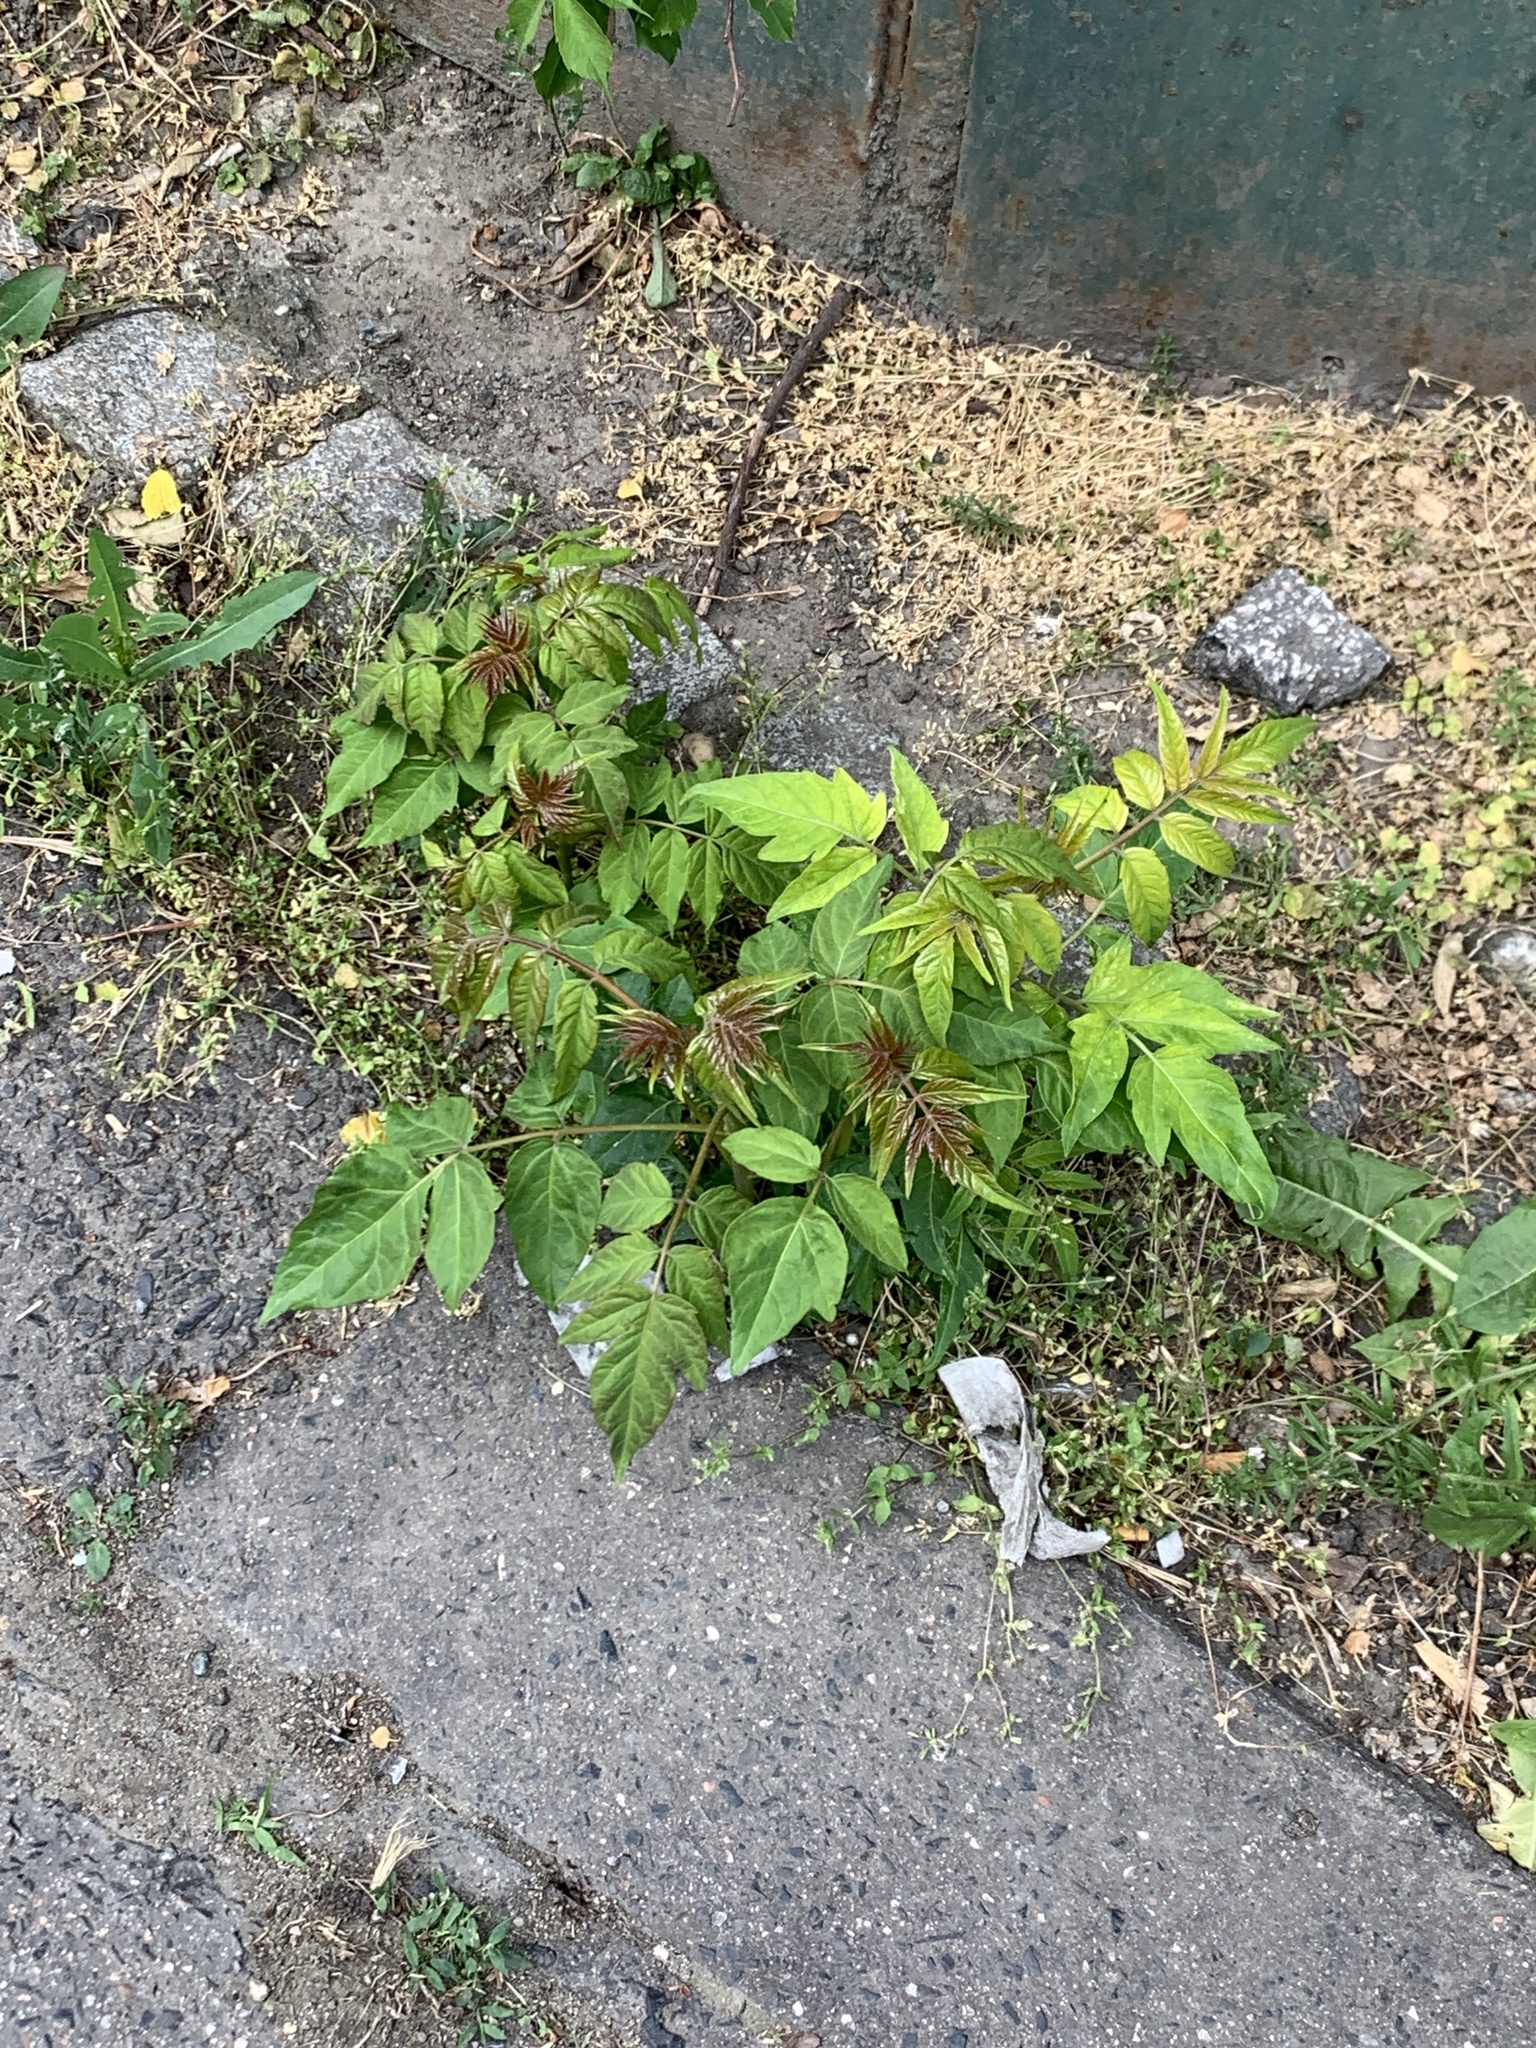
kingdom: Plantae
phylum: Tracheophyta
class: Magnoliopsida
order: Sapindales
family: Simaroubaceae
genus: Ailanthus
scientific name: Ailanthus altissima
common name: Tree-of-heaven
